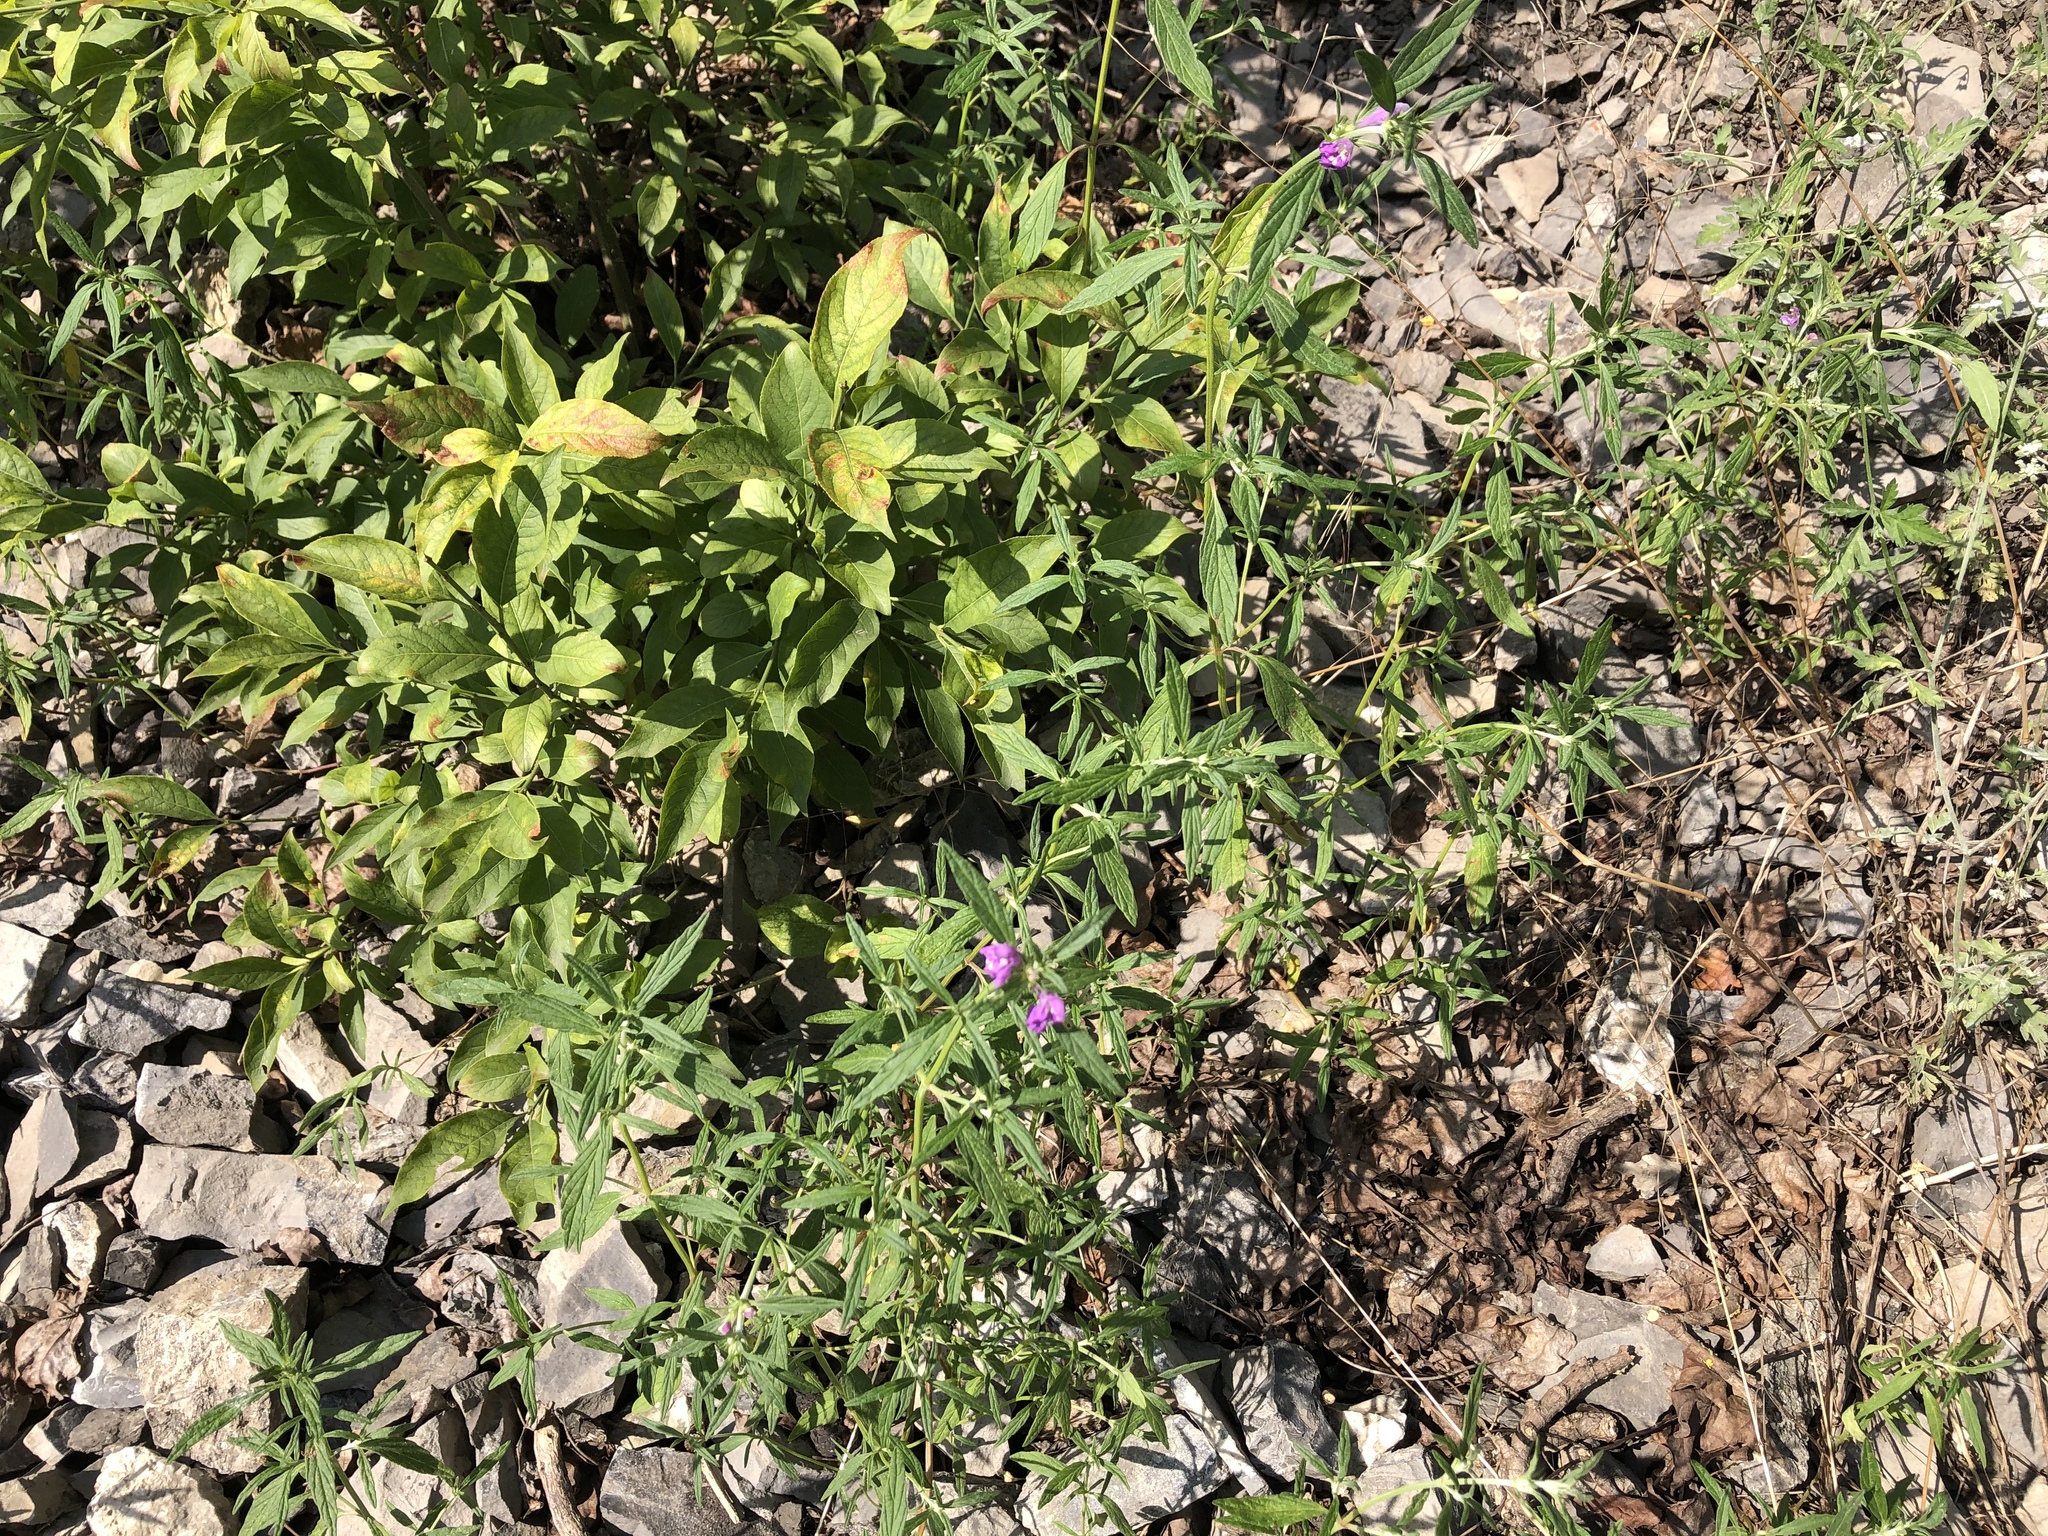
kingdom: Plantae
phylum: Tracheophyta
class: Magnoliopsida
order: Lamiales
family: Lamiaceae
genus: Galeopsis
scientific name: Galeopsis angustifolia
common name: Red hemp-nettle
